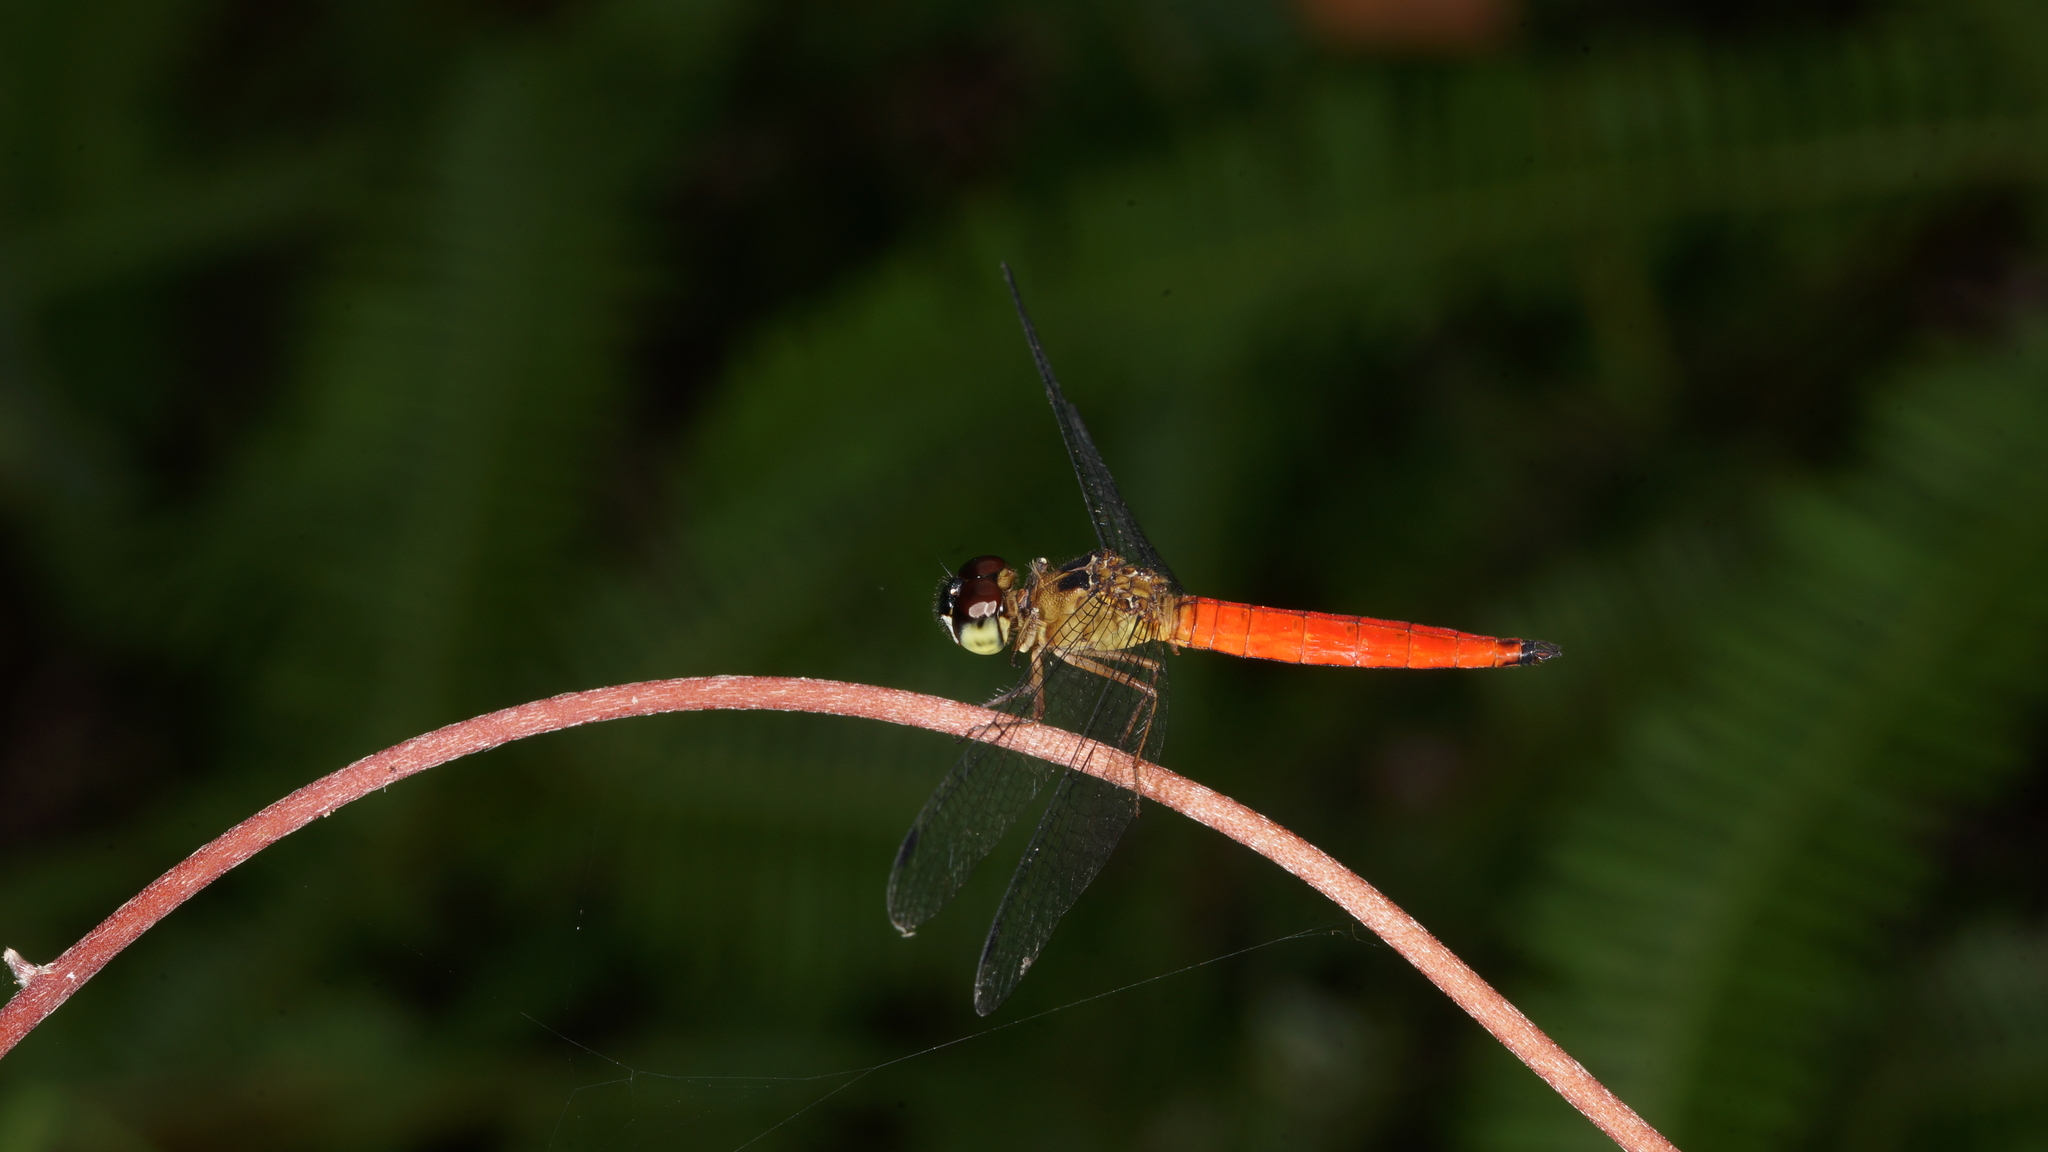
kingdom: Animalia
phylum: Arthropoda
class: Insecta
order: Odonata
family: Libellulidae
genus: Orchithemis
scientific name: Orchithemis pulcherrima
